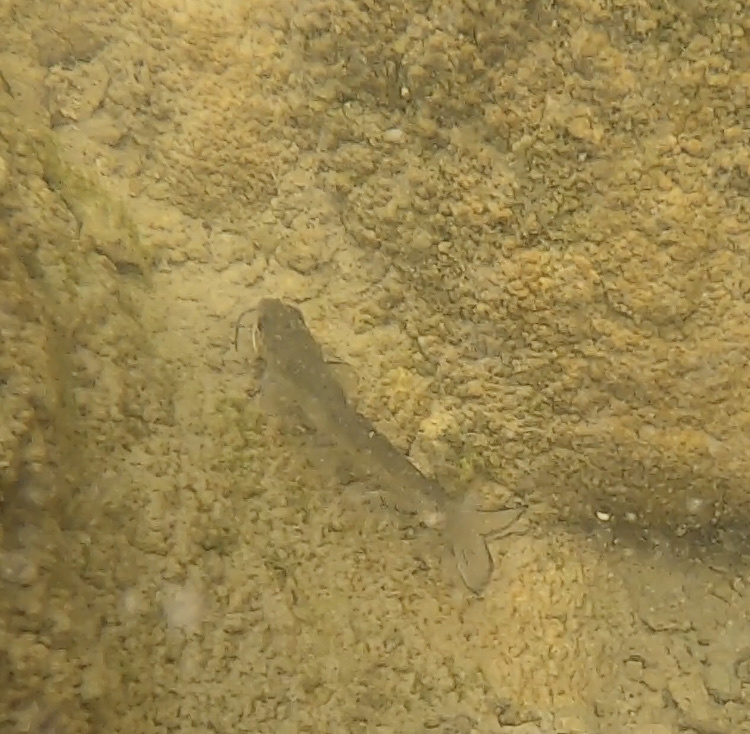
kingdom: Animalia
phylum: Chordata
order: Siluriformes
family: Ictaluridae
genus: Ictalurus
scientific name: Ictalurus punctatus
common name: Channel catfish
